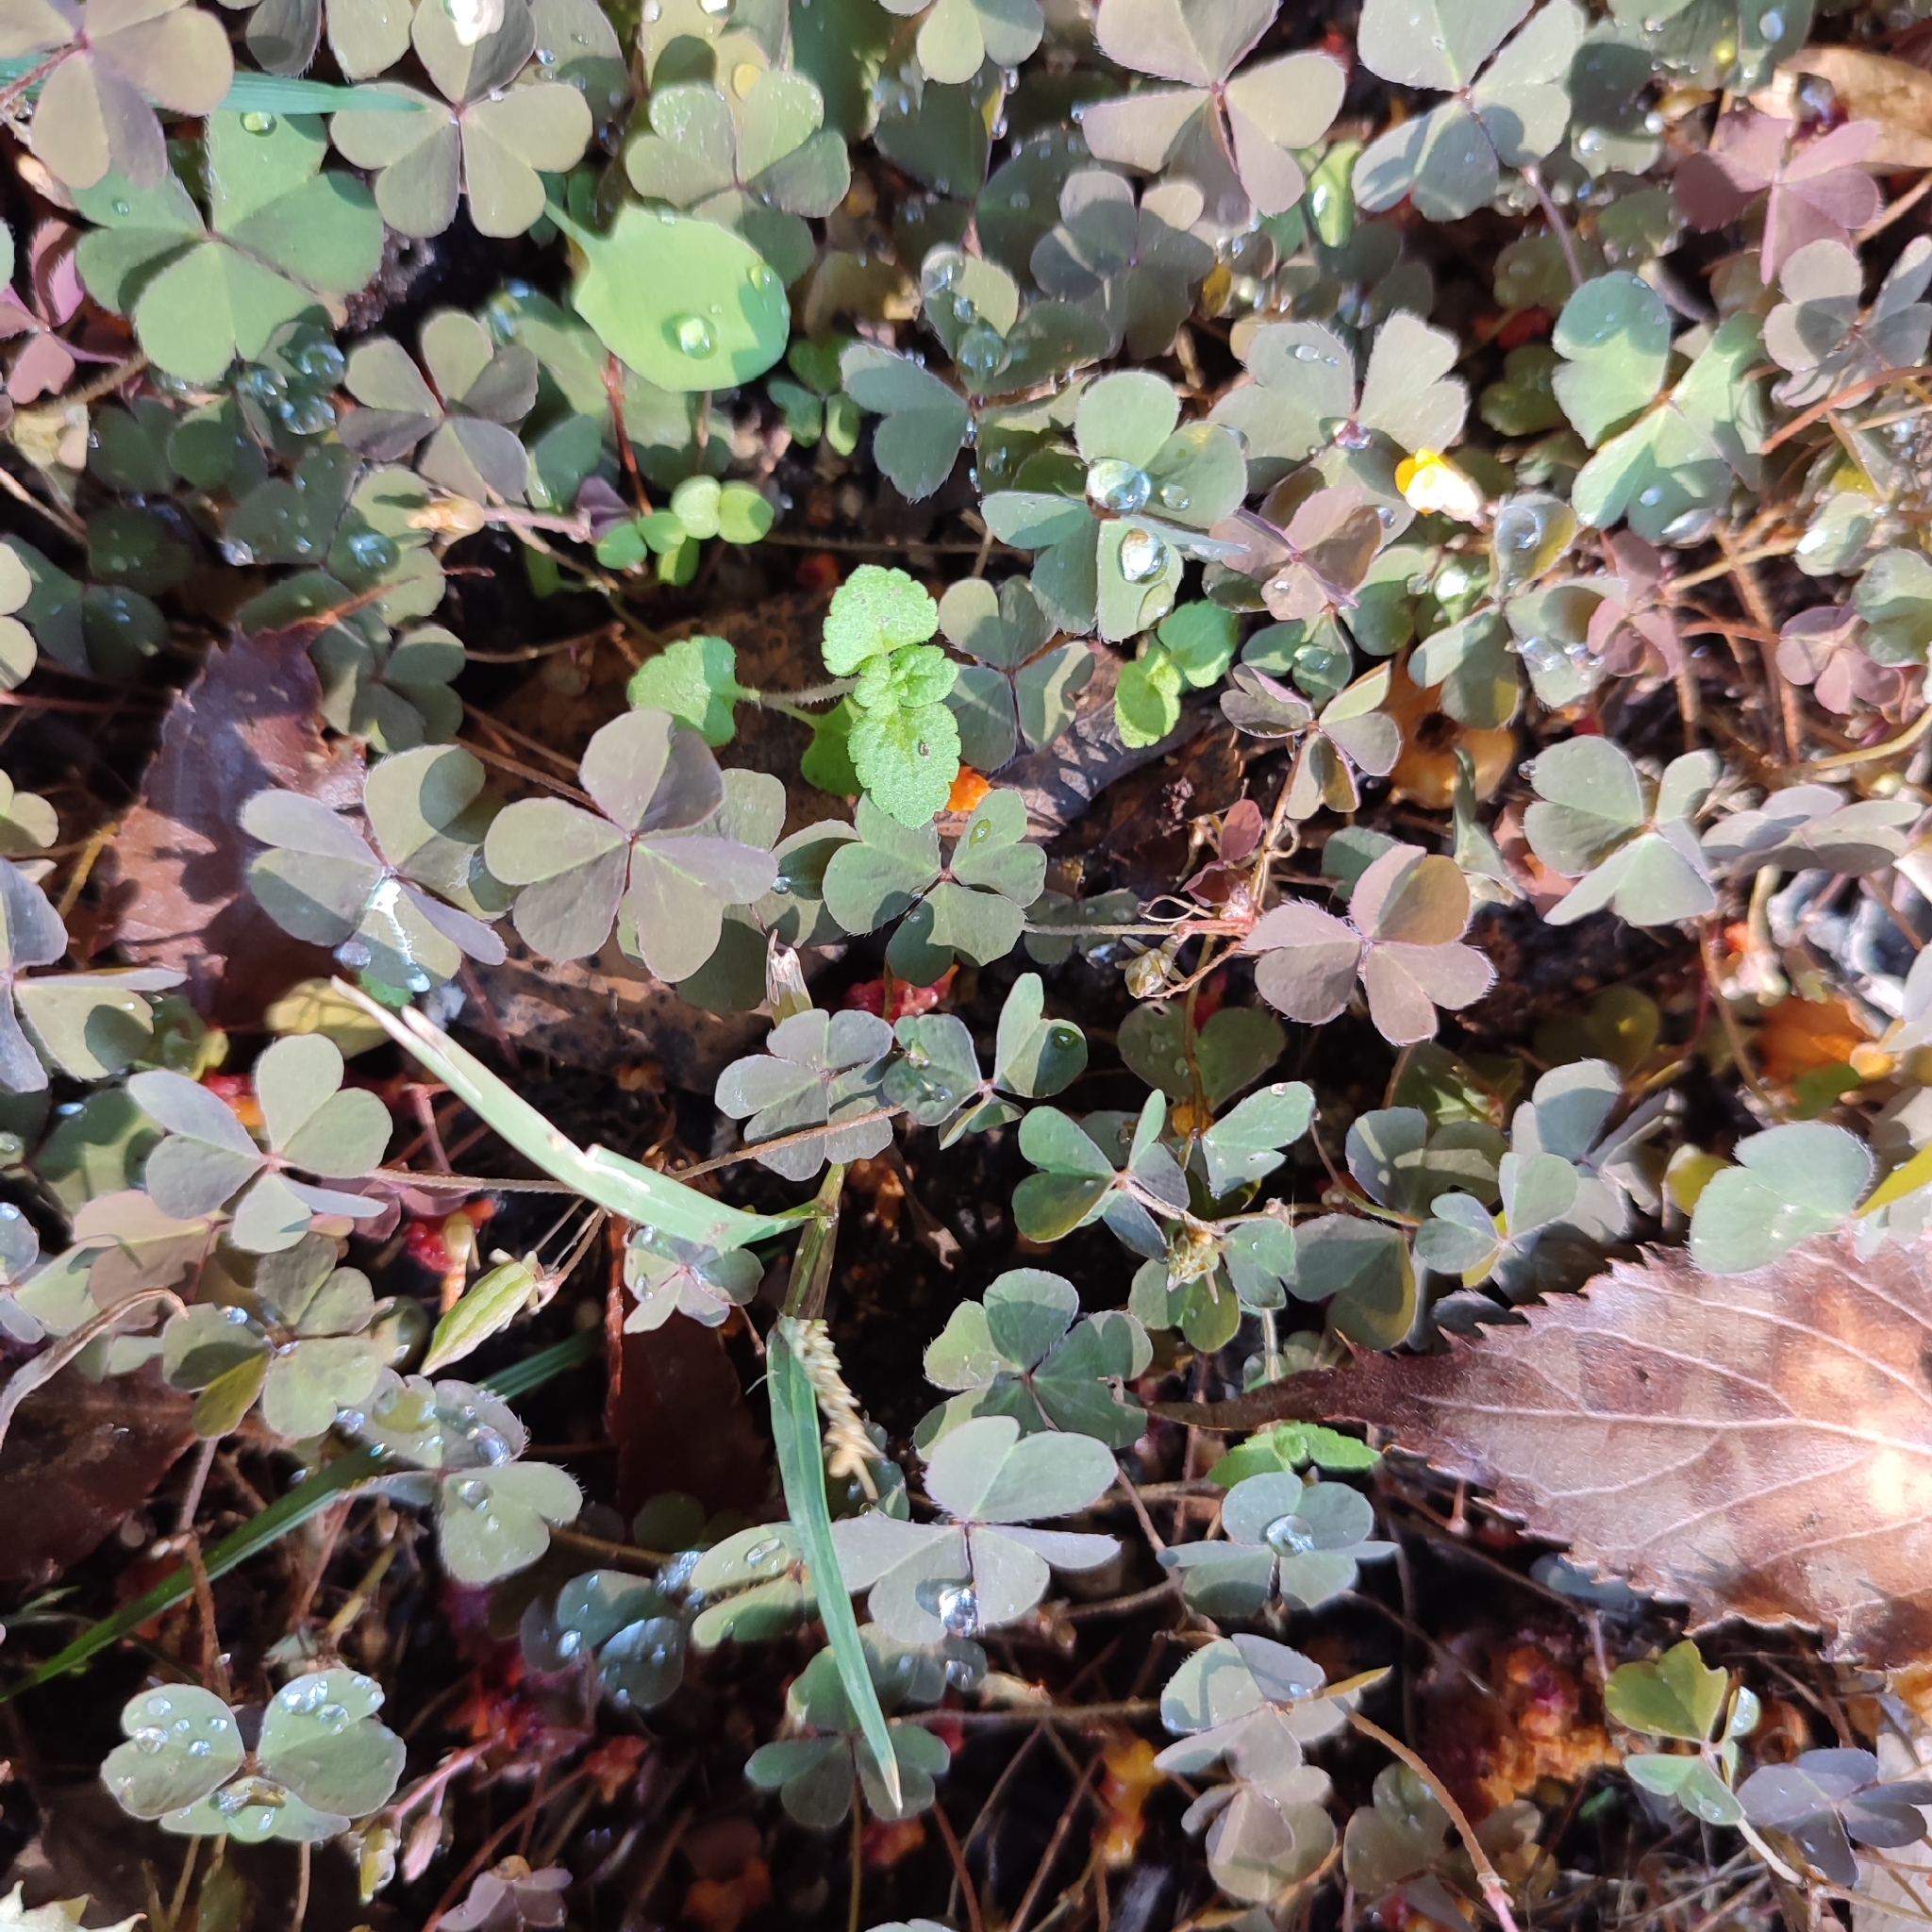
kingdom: Plantae
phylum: Tracheophyta
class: Magnoliopsida
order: Oxalidales
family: Oxalidaceae
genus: Oxalis
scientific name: Oxalis corniculata
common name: Procumbent yellow-sorrel
